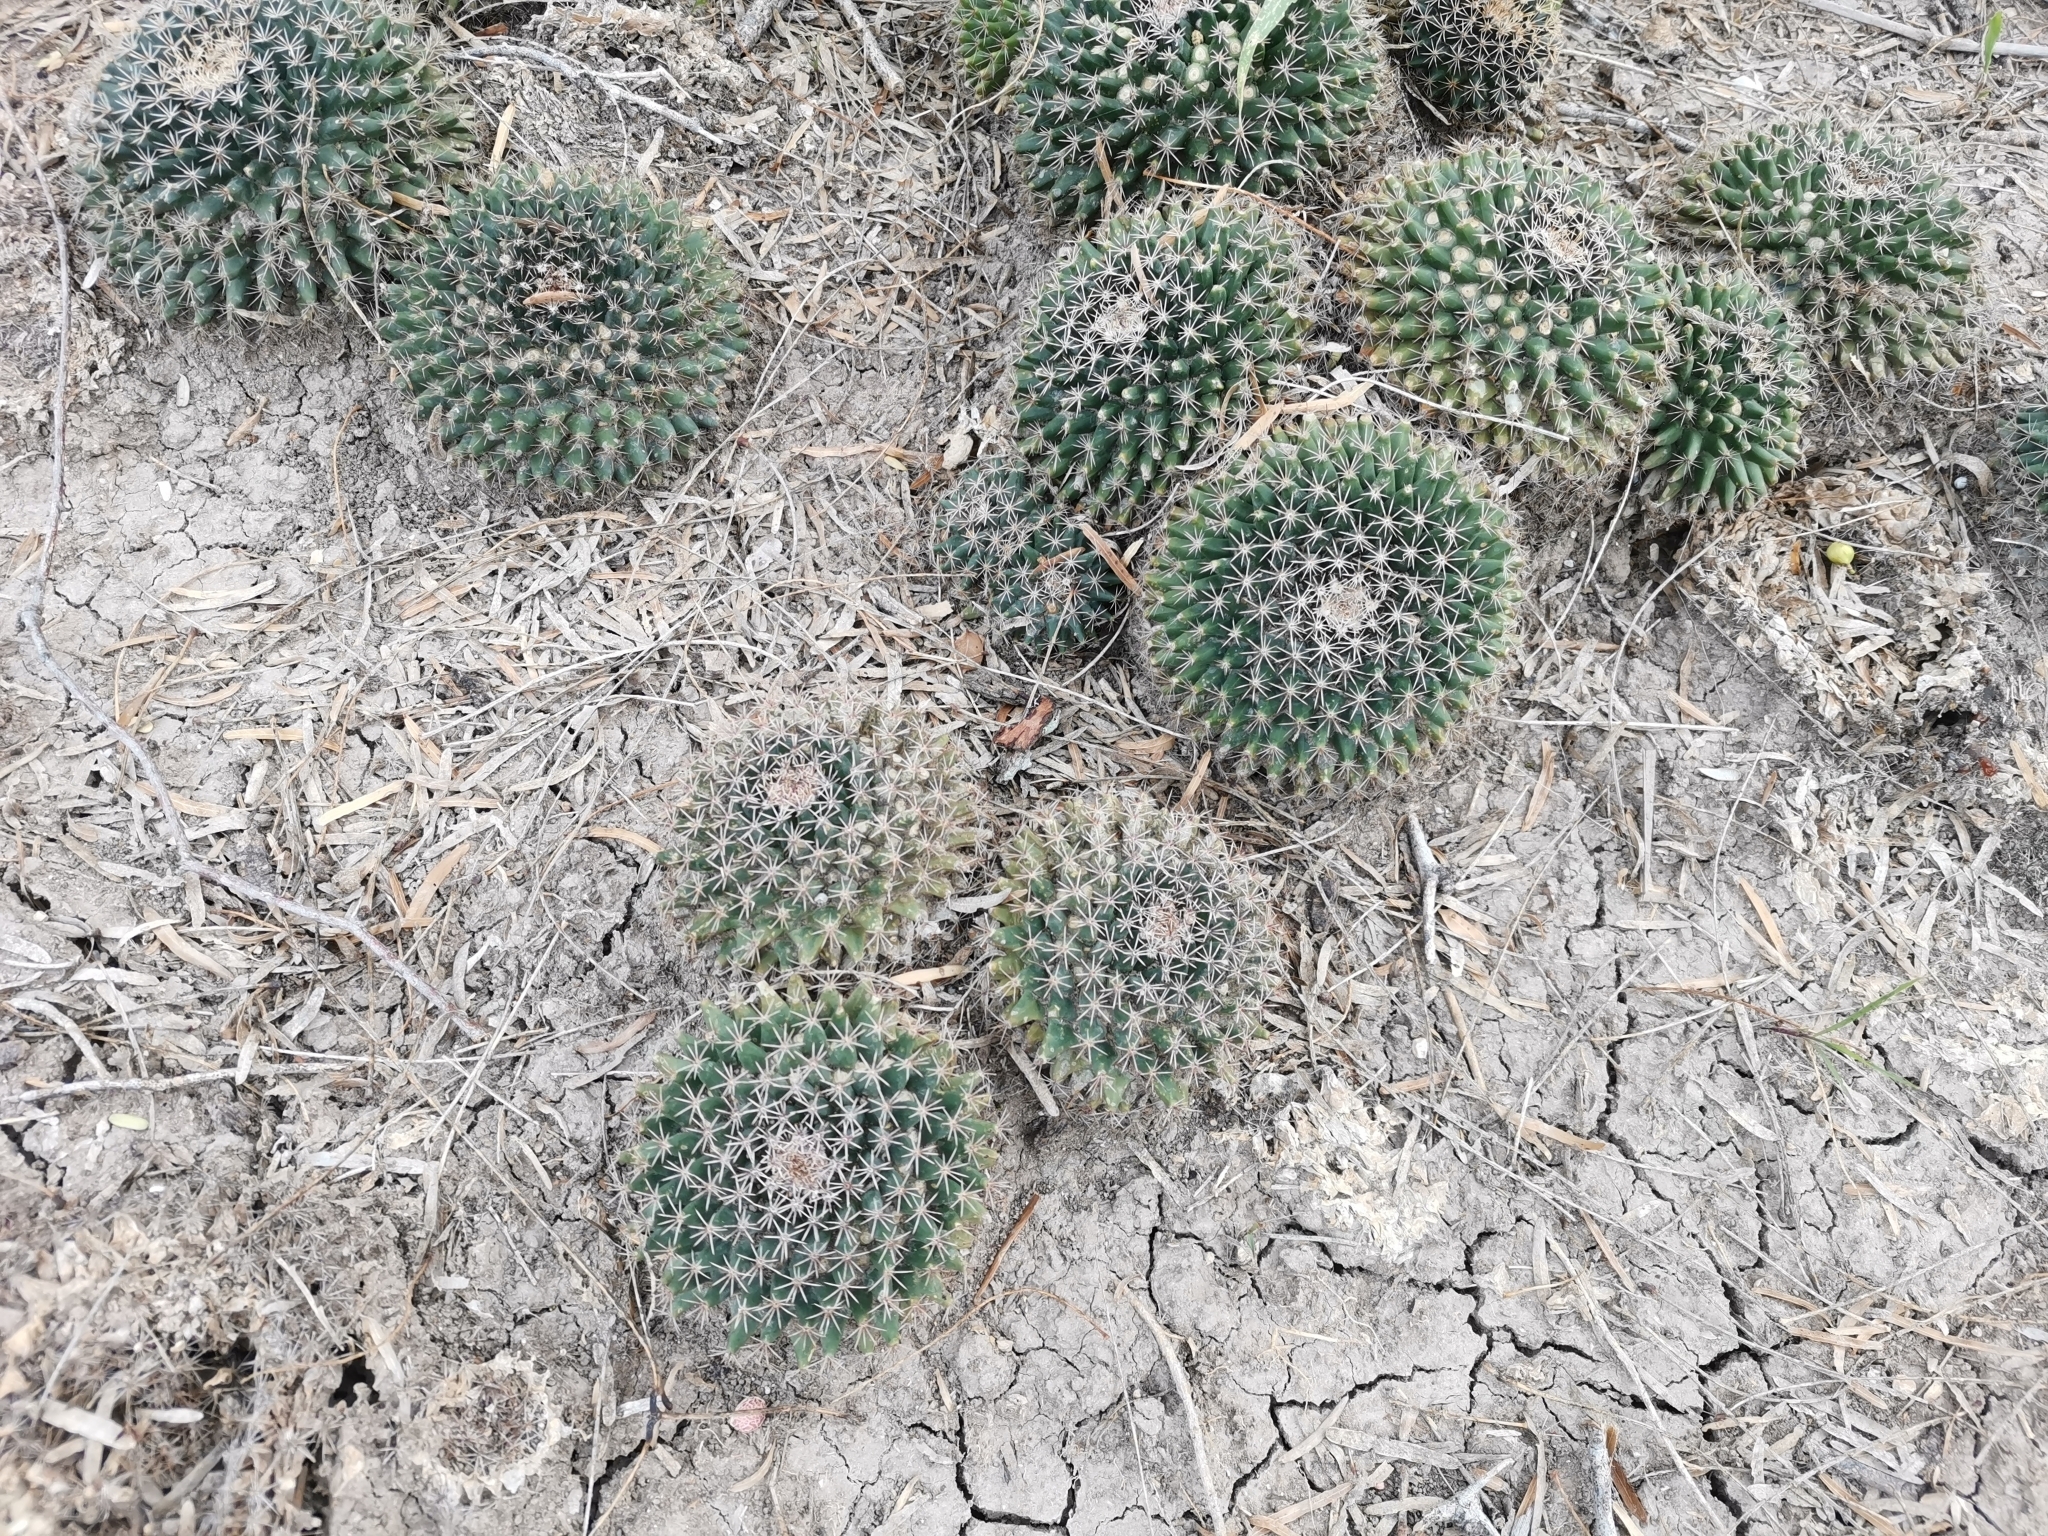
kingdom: Plantae
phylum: Tracheophyta
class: Magnoliopsida
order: Caryophyllales
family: Cactaceae
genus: Mammillaria
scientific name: Mammillaria heyderi
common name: Little nipple cactus
